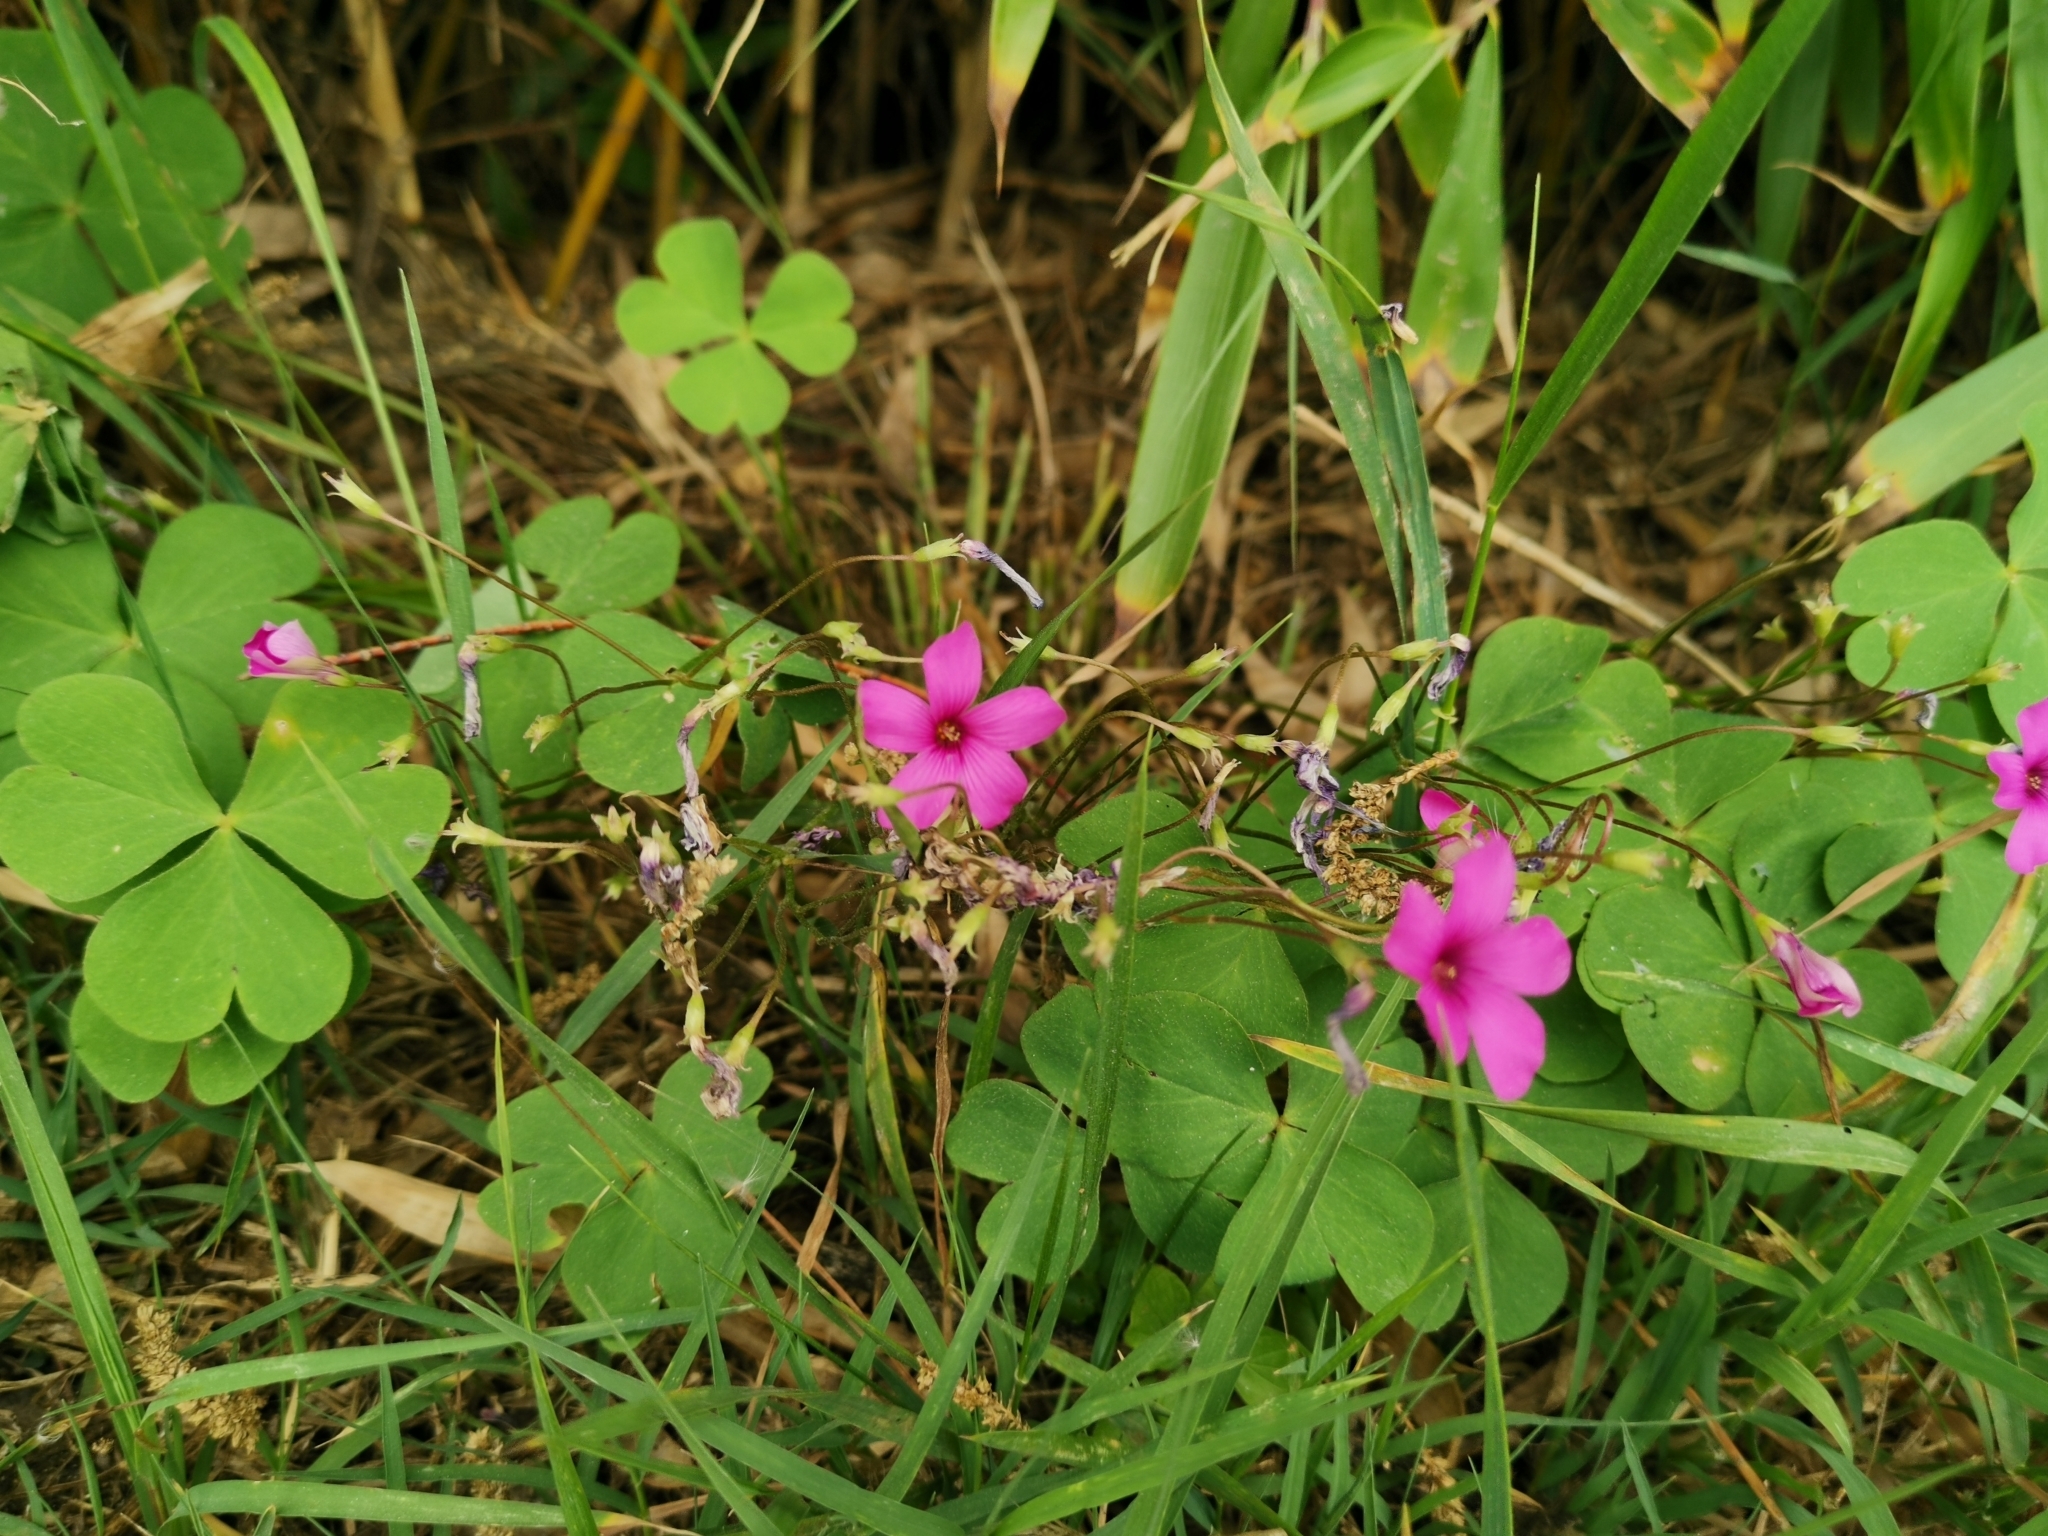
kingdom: Plantae
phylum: Tracheophyta
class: Magnoliopsida
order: Oxalidales
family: Oxalidaceae
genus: Oxalis
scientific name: Oxalis articulata
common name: Pink-sorrel
